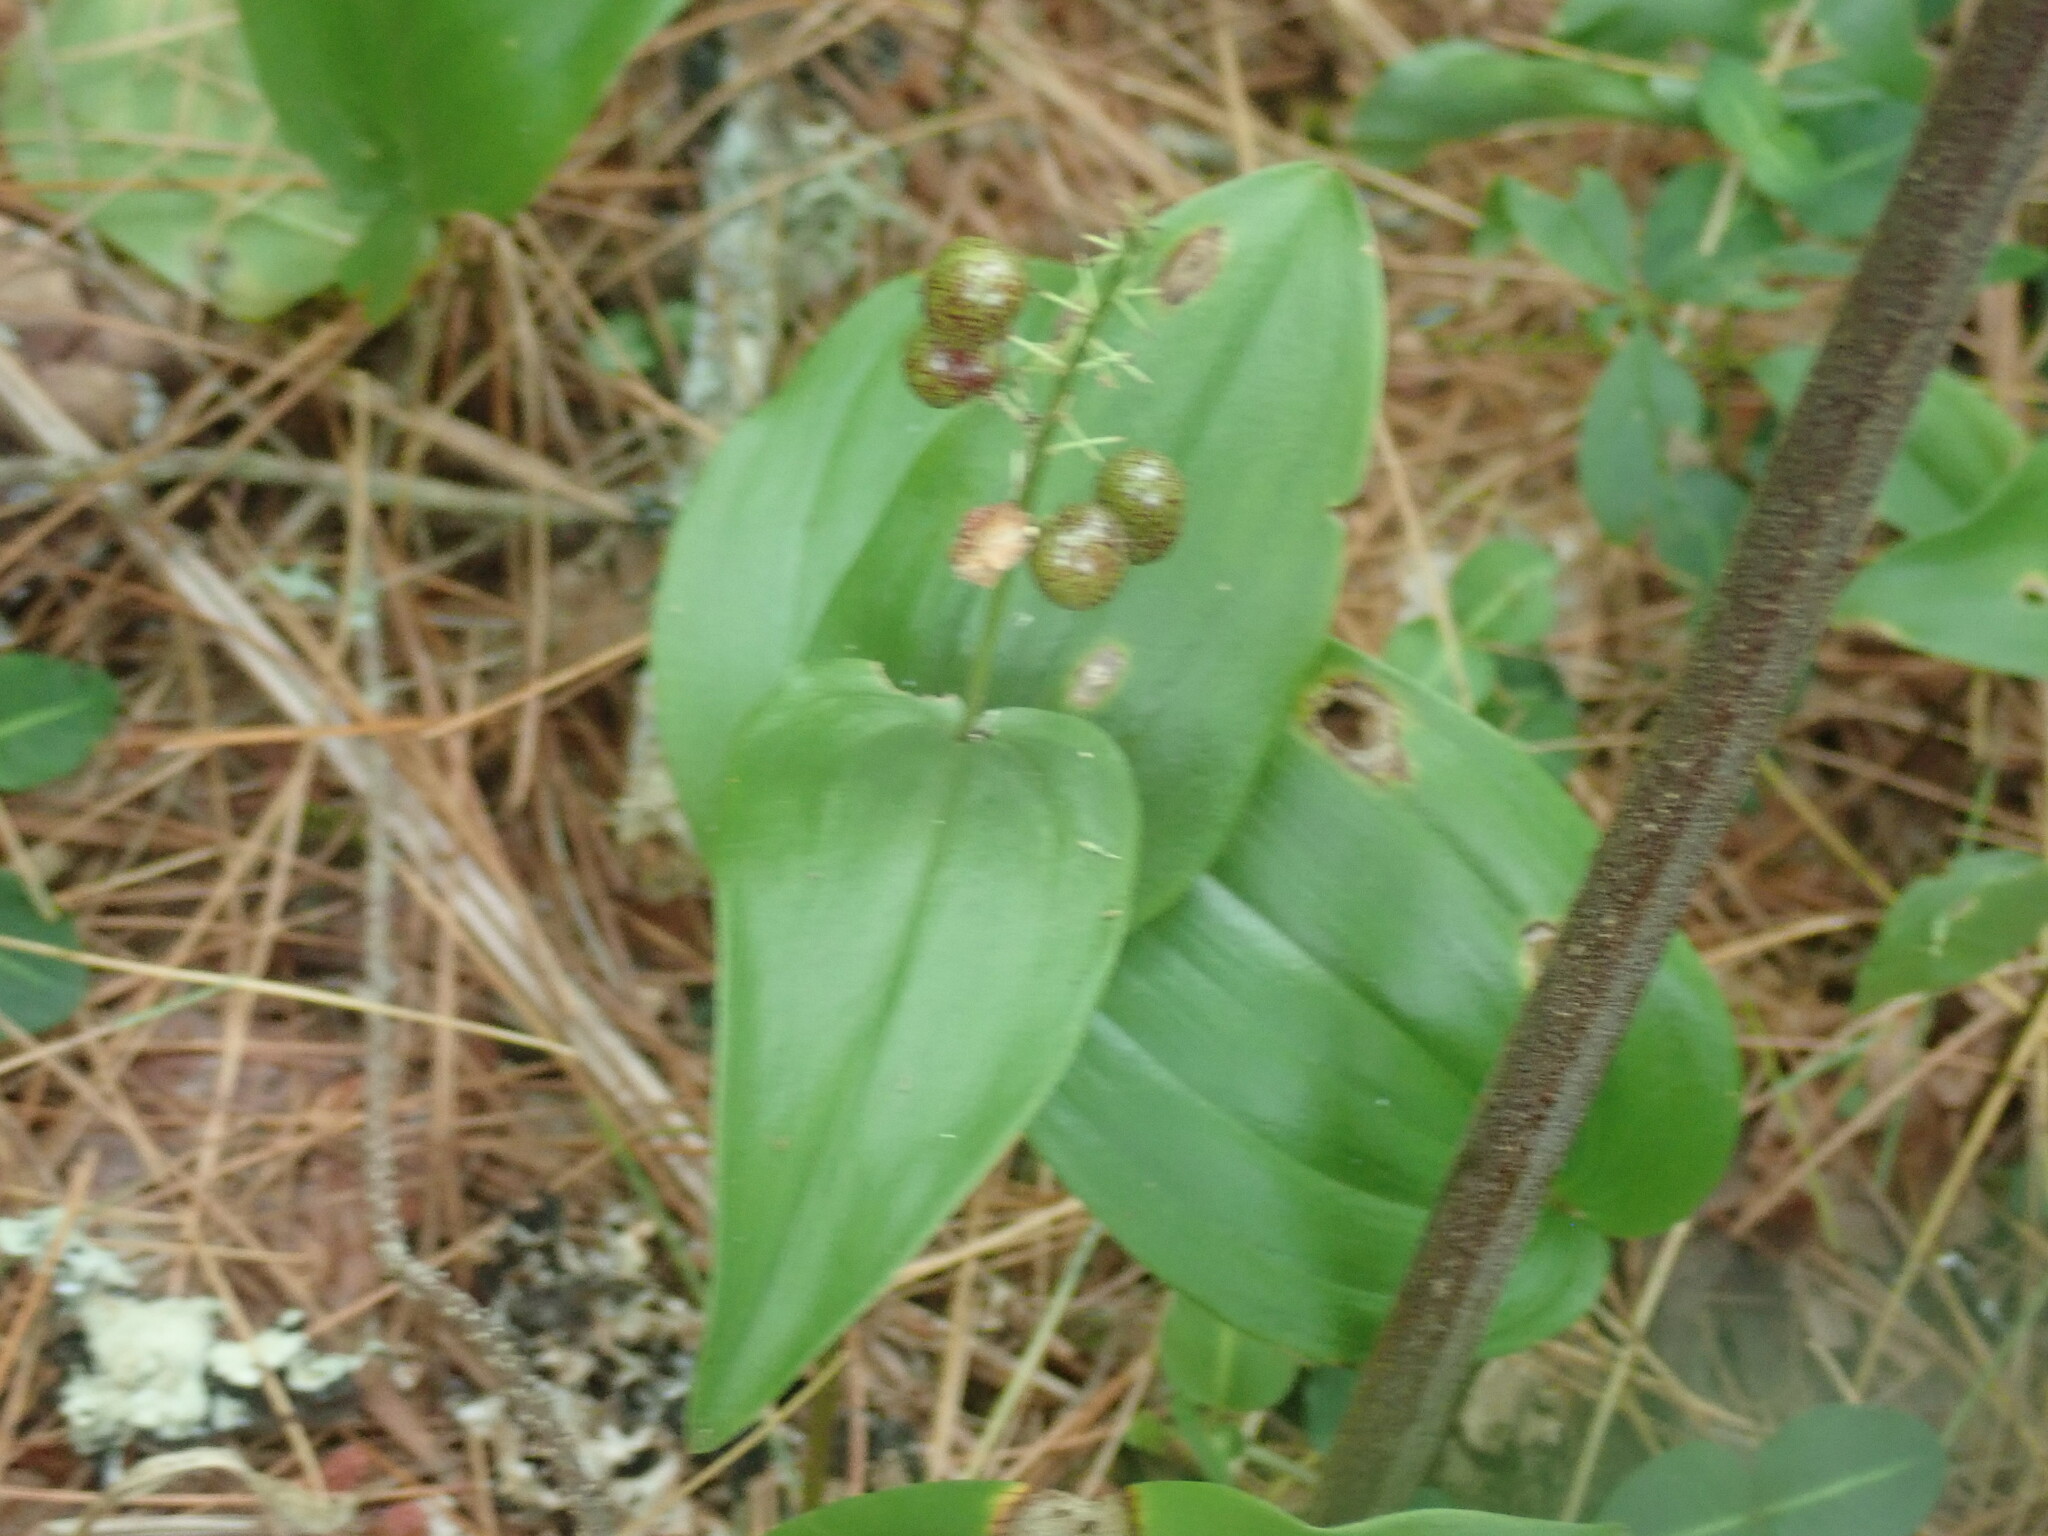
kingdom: Plantae
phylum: Tracheophyta
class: Liliopsida
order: Asparagales
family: Asparagaceae
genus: Maianthemum
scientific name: Maianthemum canadense
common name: False lily-of-the-valley
